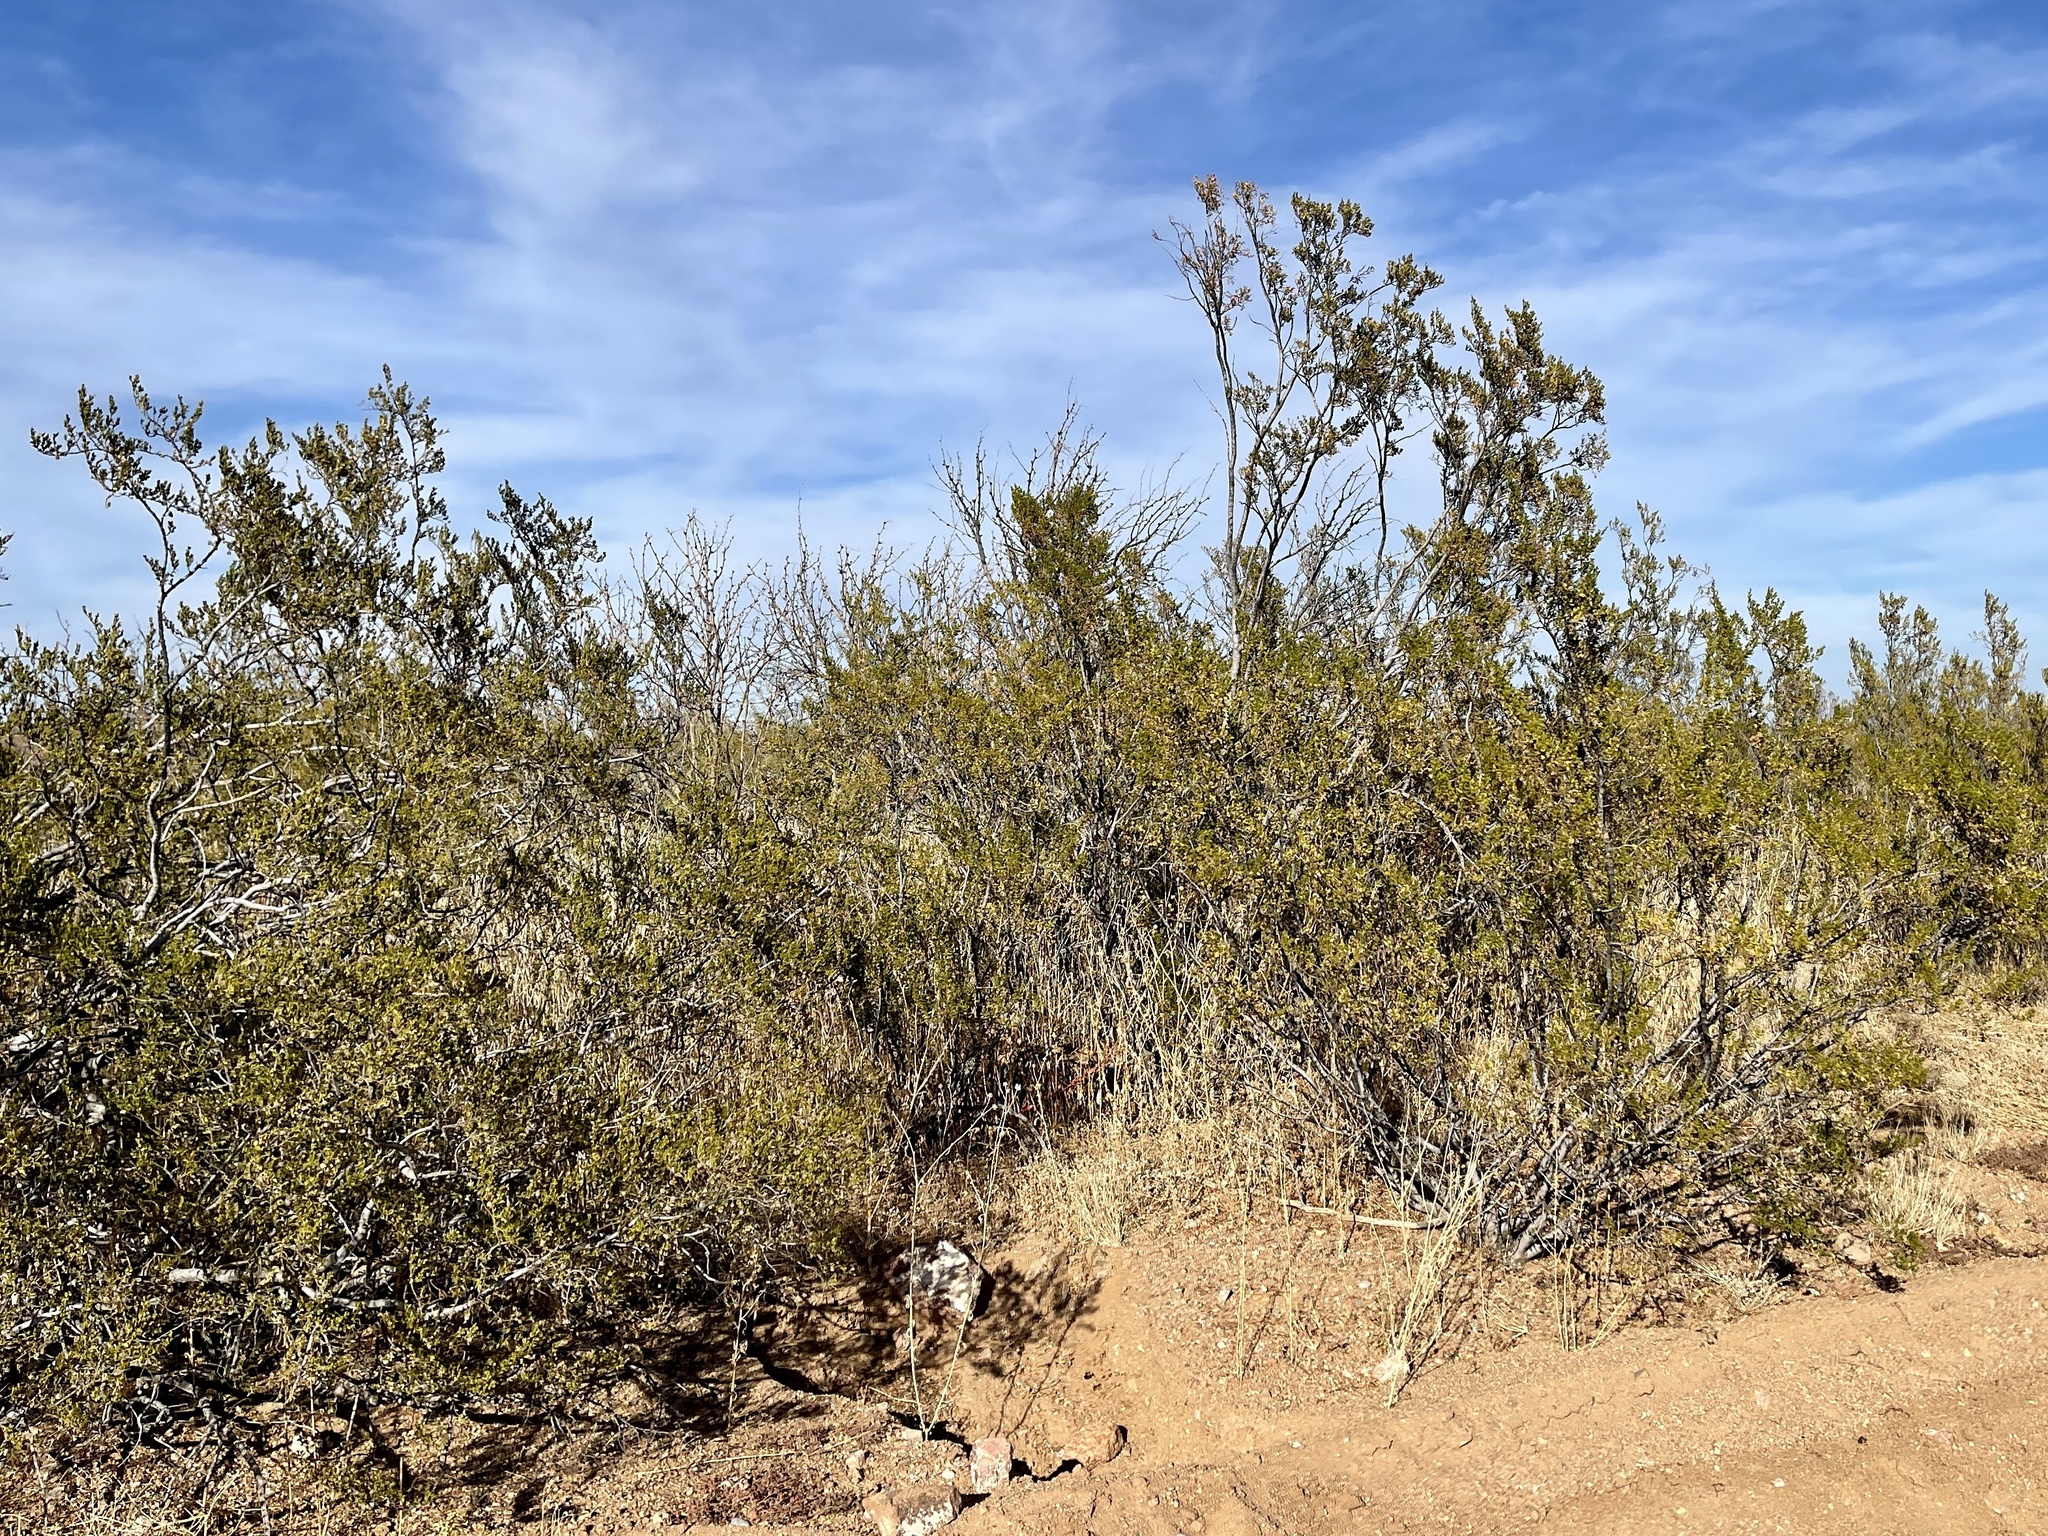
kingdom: Plantae
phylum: Tracheophyta
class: Magnoliopsida
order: Zygophyllales
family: Zygophyllaceae
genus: Larrea
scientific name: Larrea tridentata
